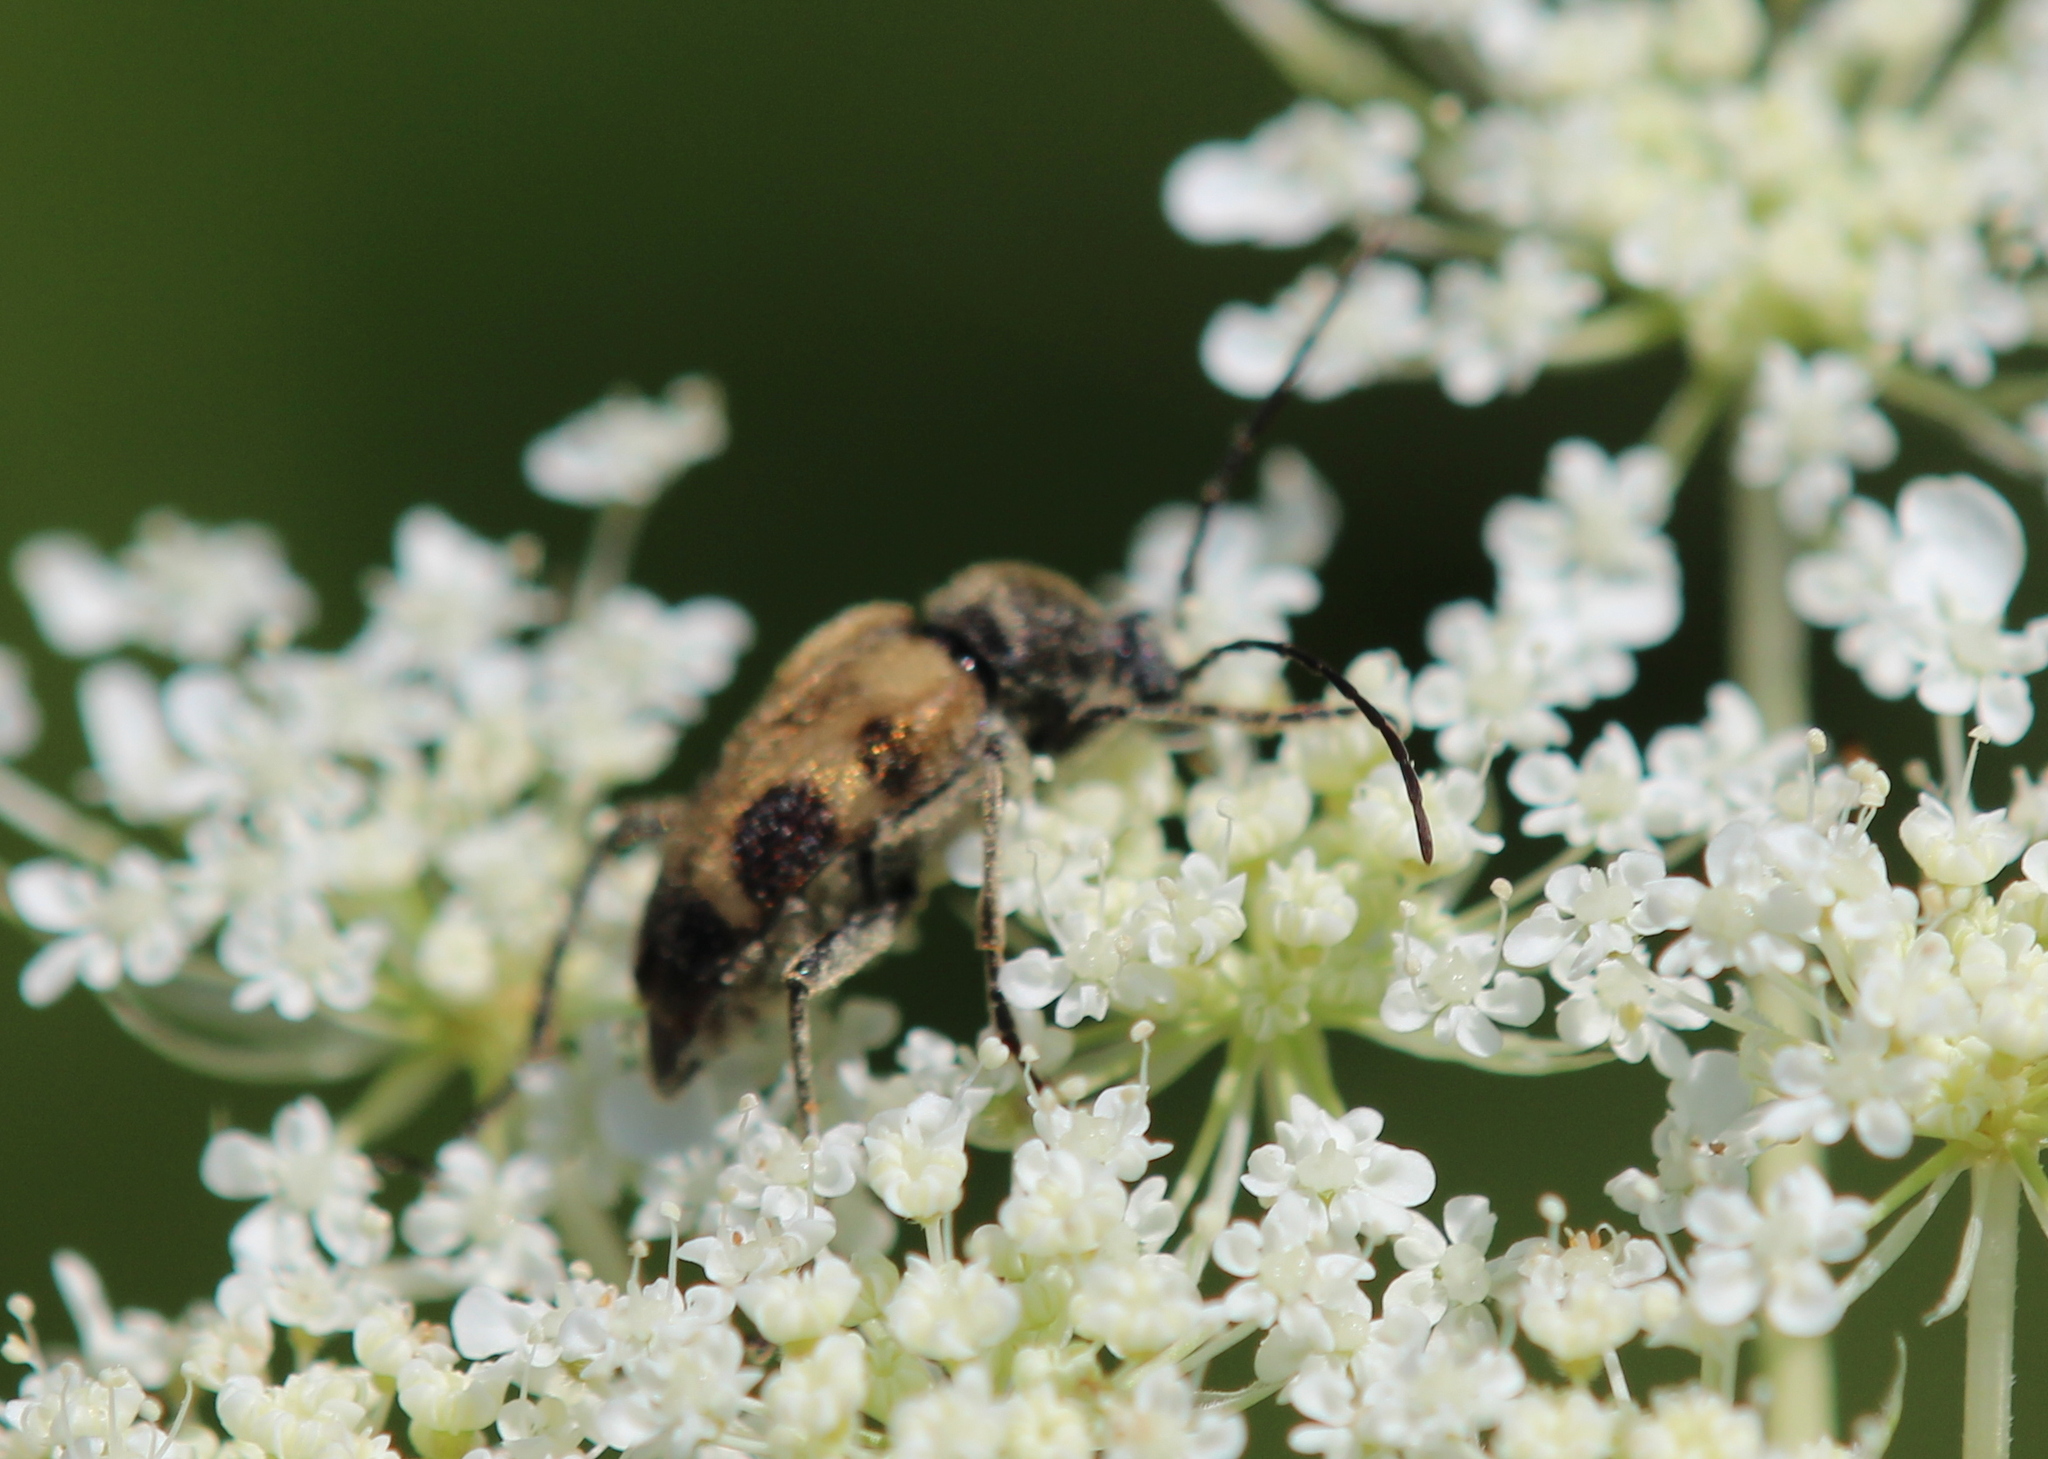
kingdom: Animalia
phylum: Arthropoda
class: Insecta
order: Coleoptera
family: Cerambycidae
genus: Judolia
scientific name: Judolia cordifera
